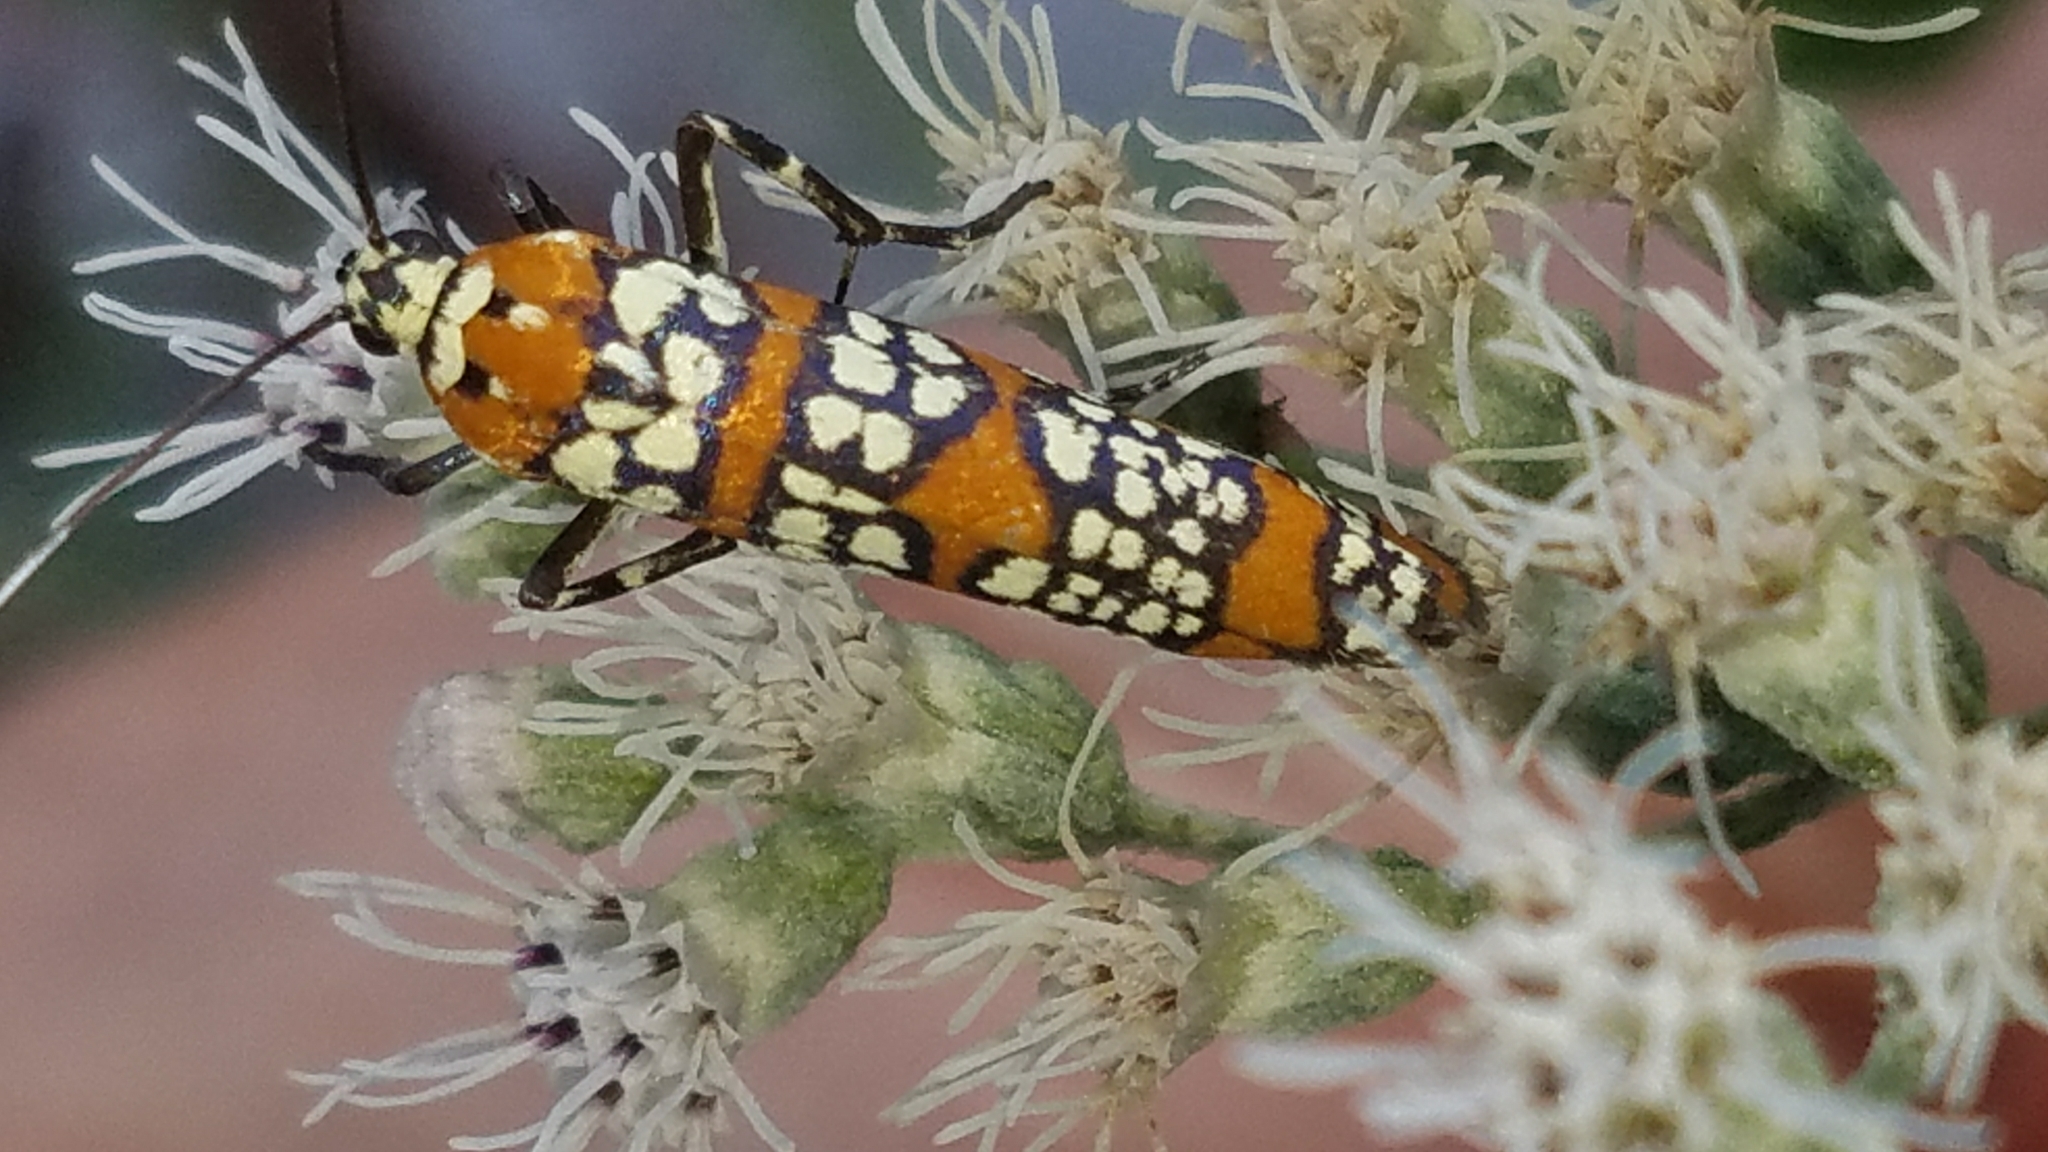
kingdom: Animalia
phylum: Arthropoda
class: Insecta
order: Lepidoptera
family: Attevidae
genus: Atteva
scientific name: Atteva punctella
